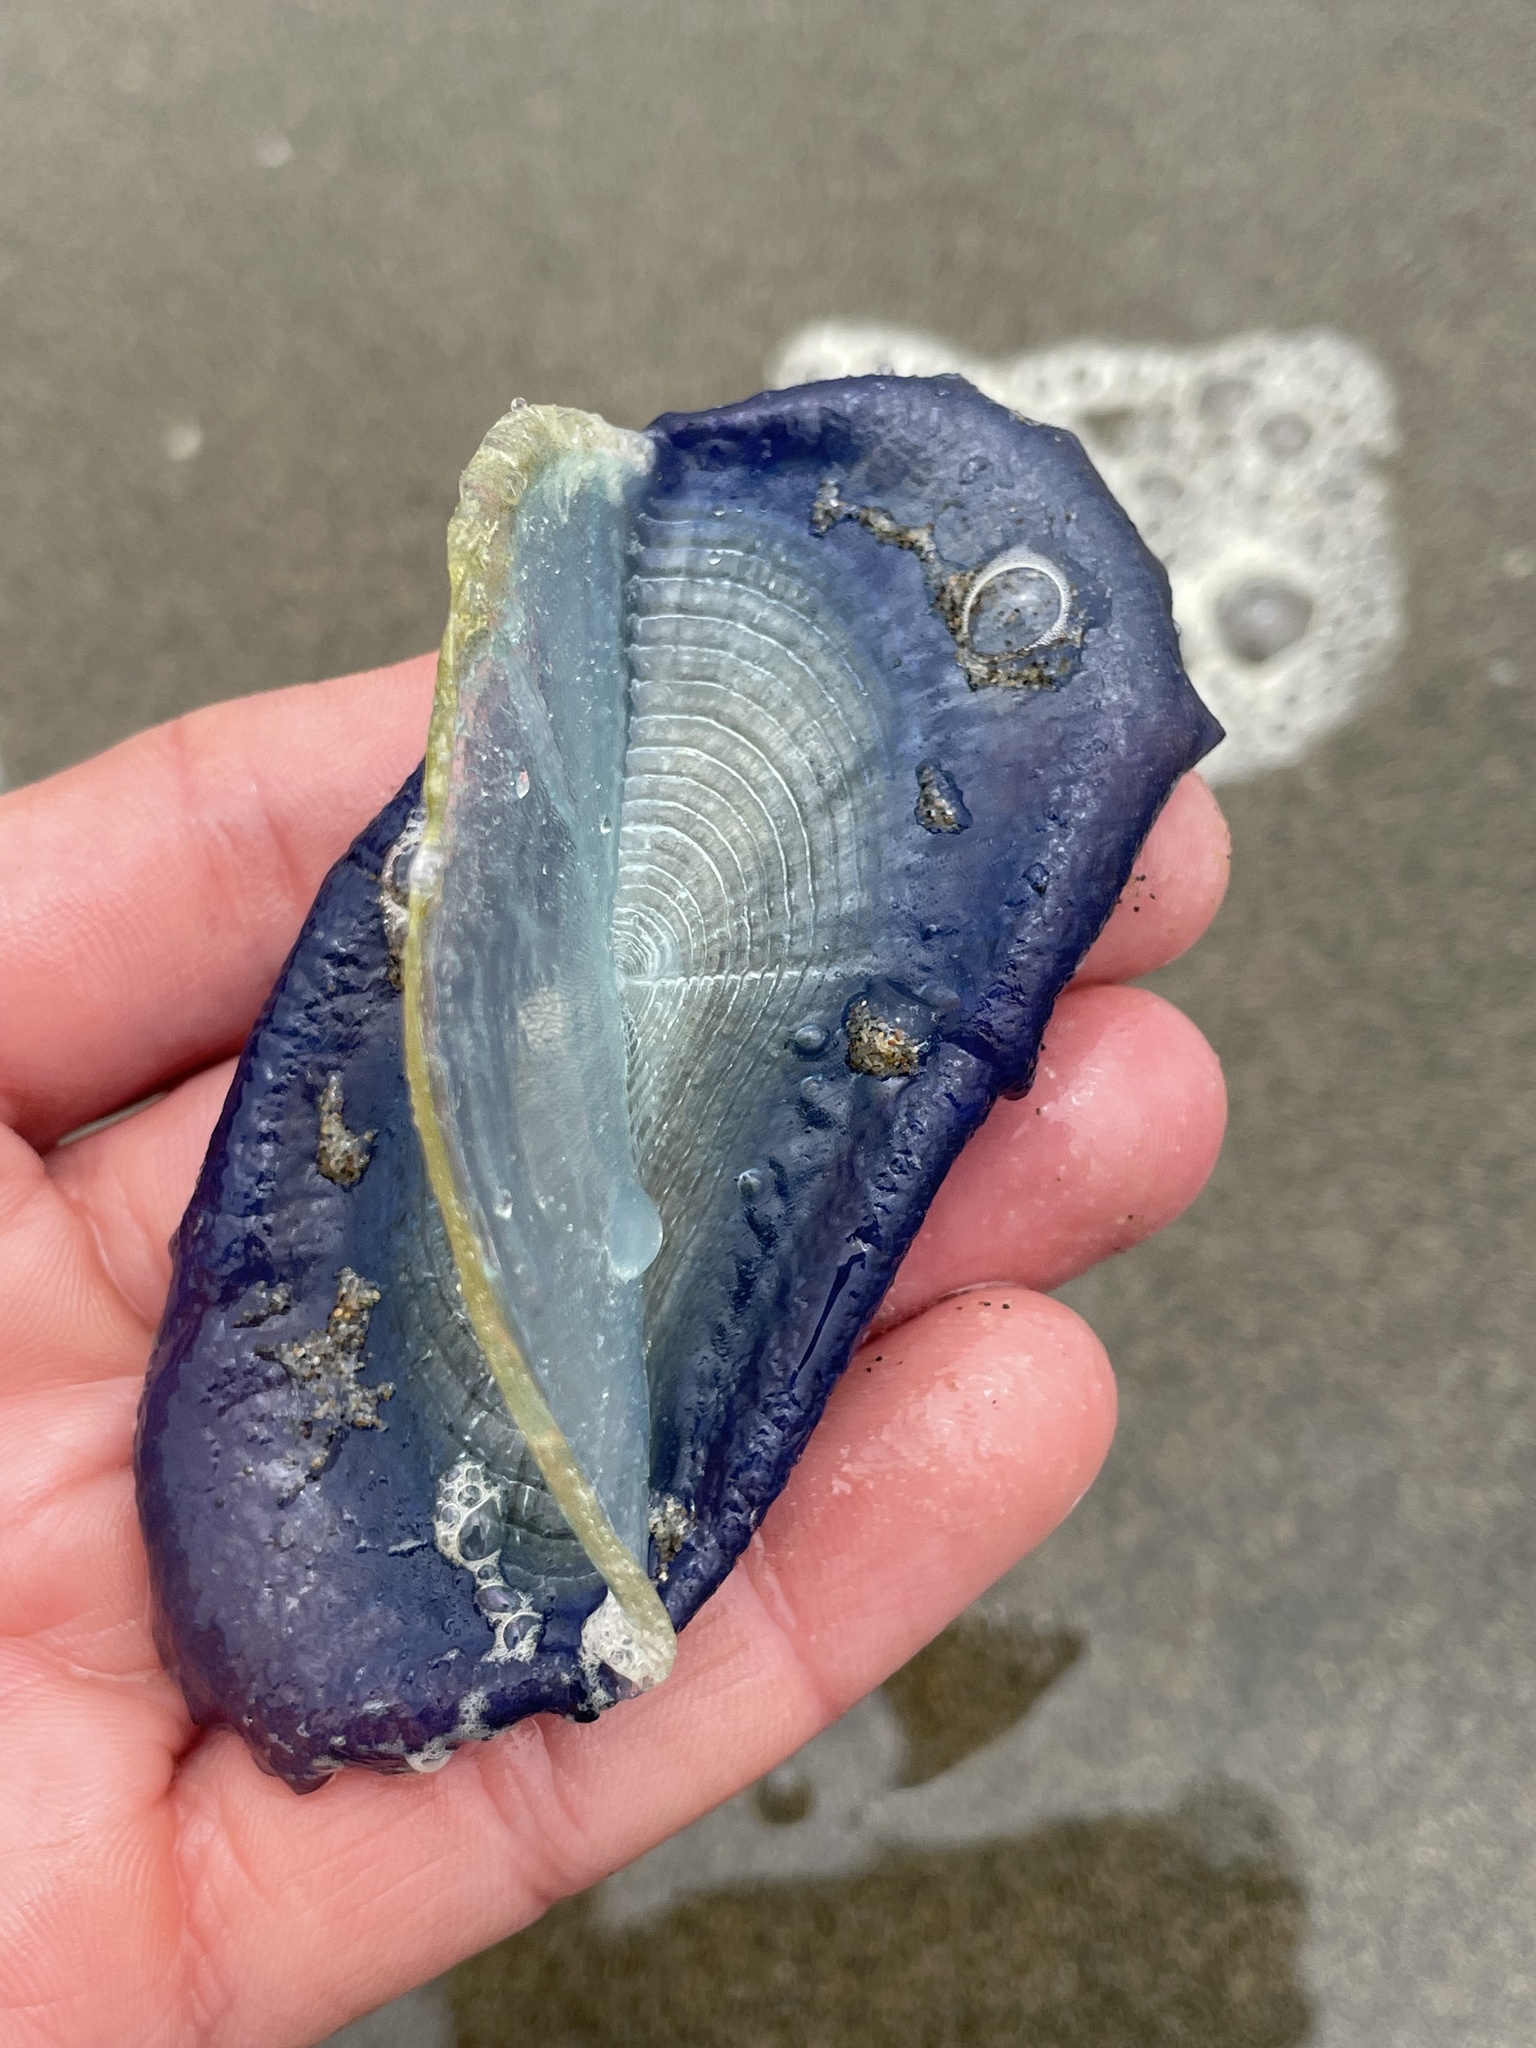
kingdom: Animalia
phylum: Cnidaria
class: Hydrozoa
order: Anthoathecata
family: Porpitidae
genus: Velella
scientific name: Velella velella
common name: By-the-wind-sailor
